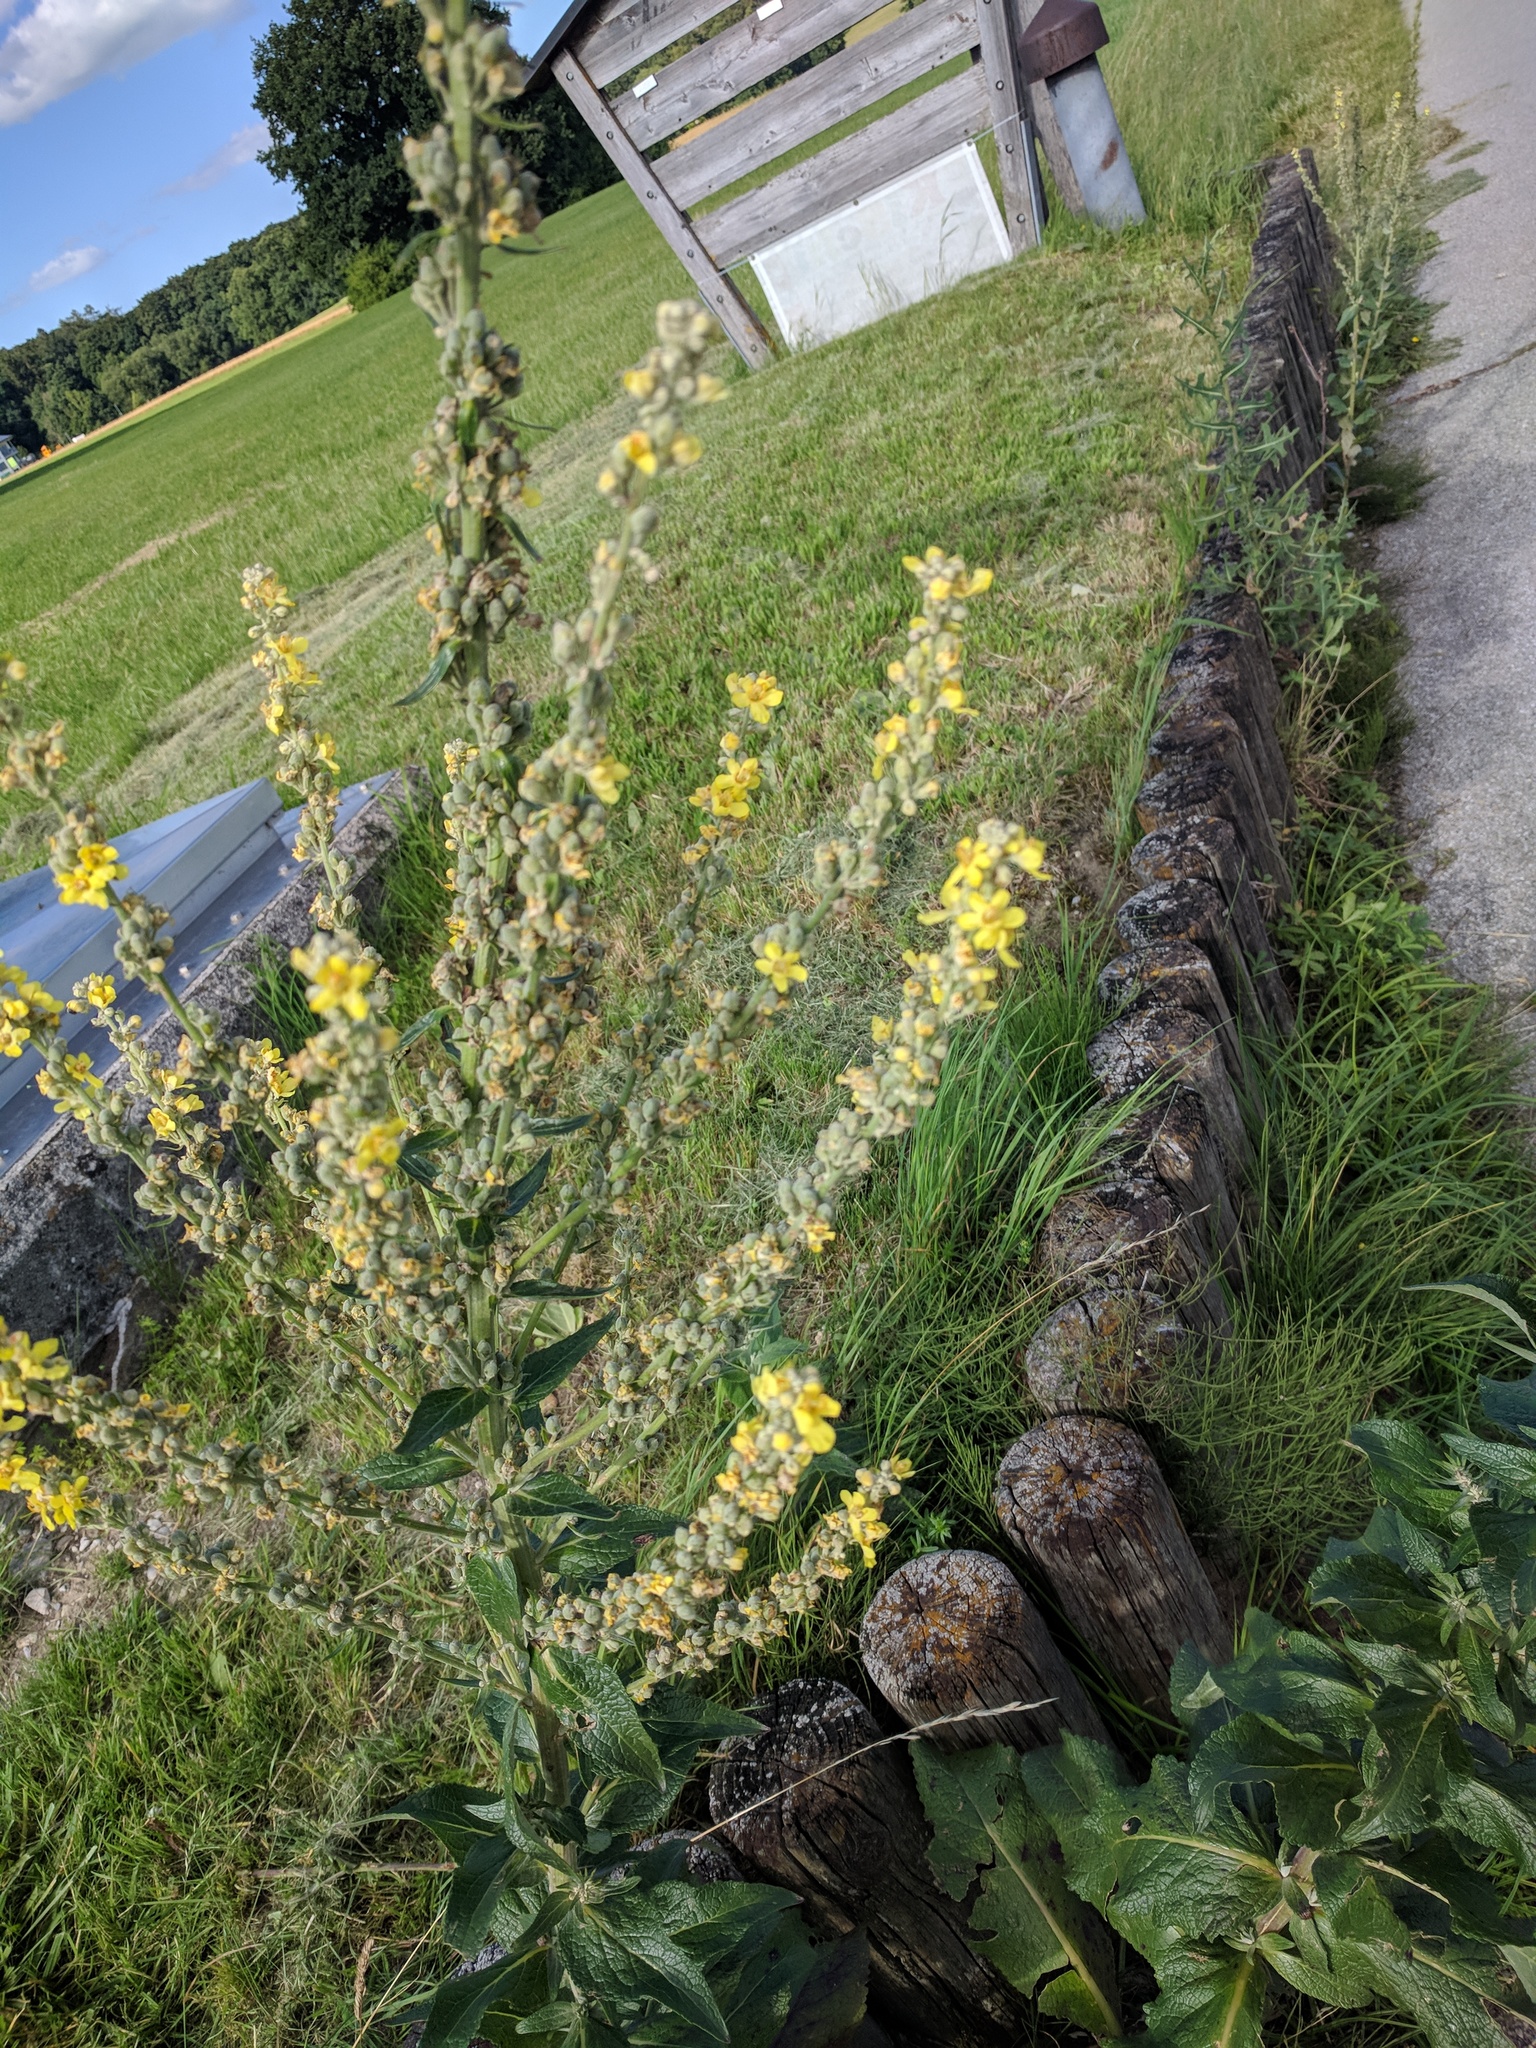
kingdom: Plantae
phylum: Tracheophyta
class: Magnoliopsida
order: Lamiales
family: Scrophulariaceae
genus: Verbascum
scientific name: Verbascum lychnitis
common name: White mullein
